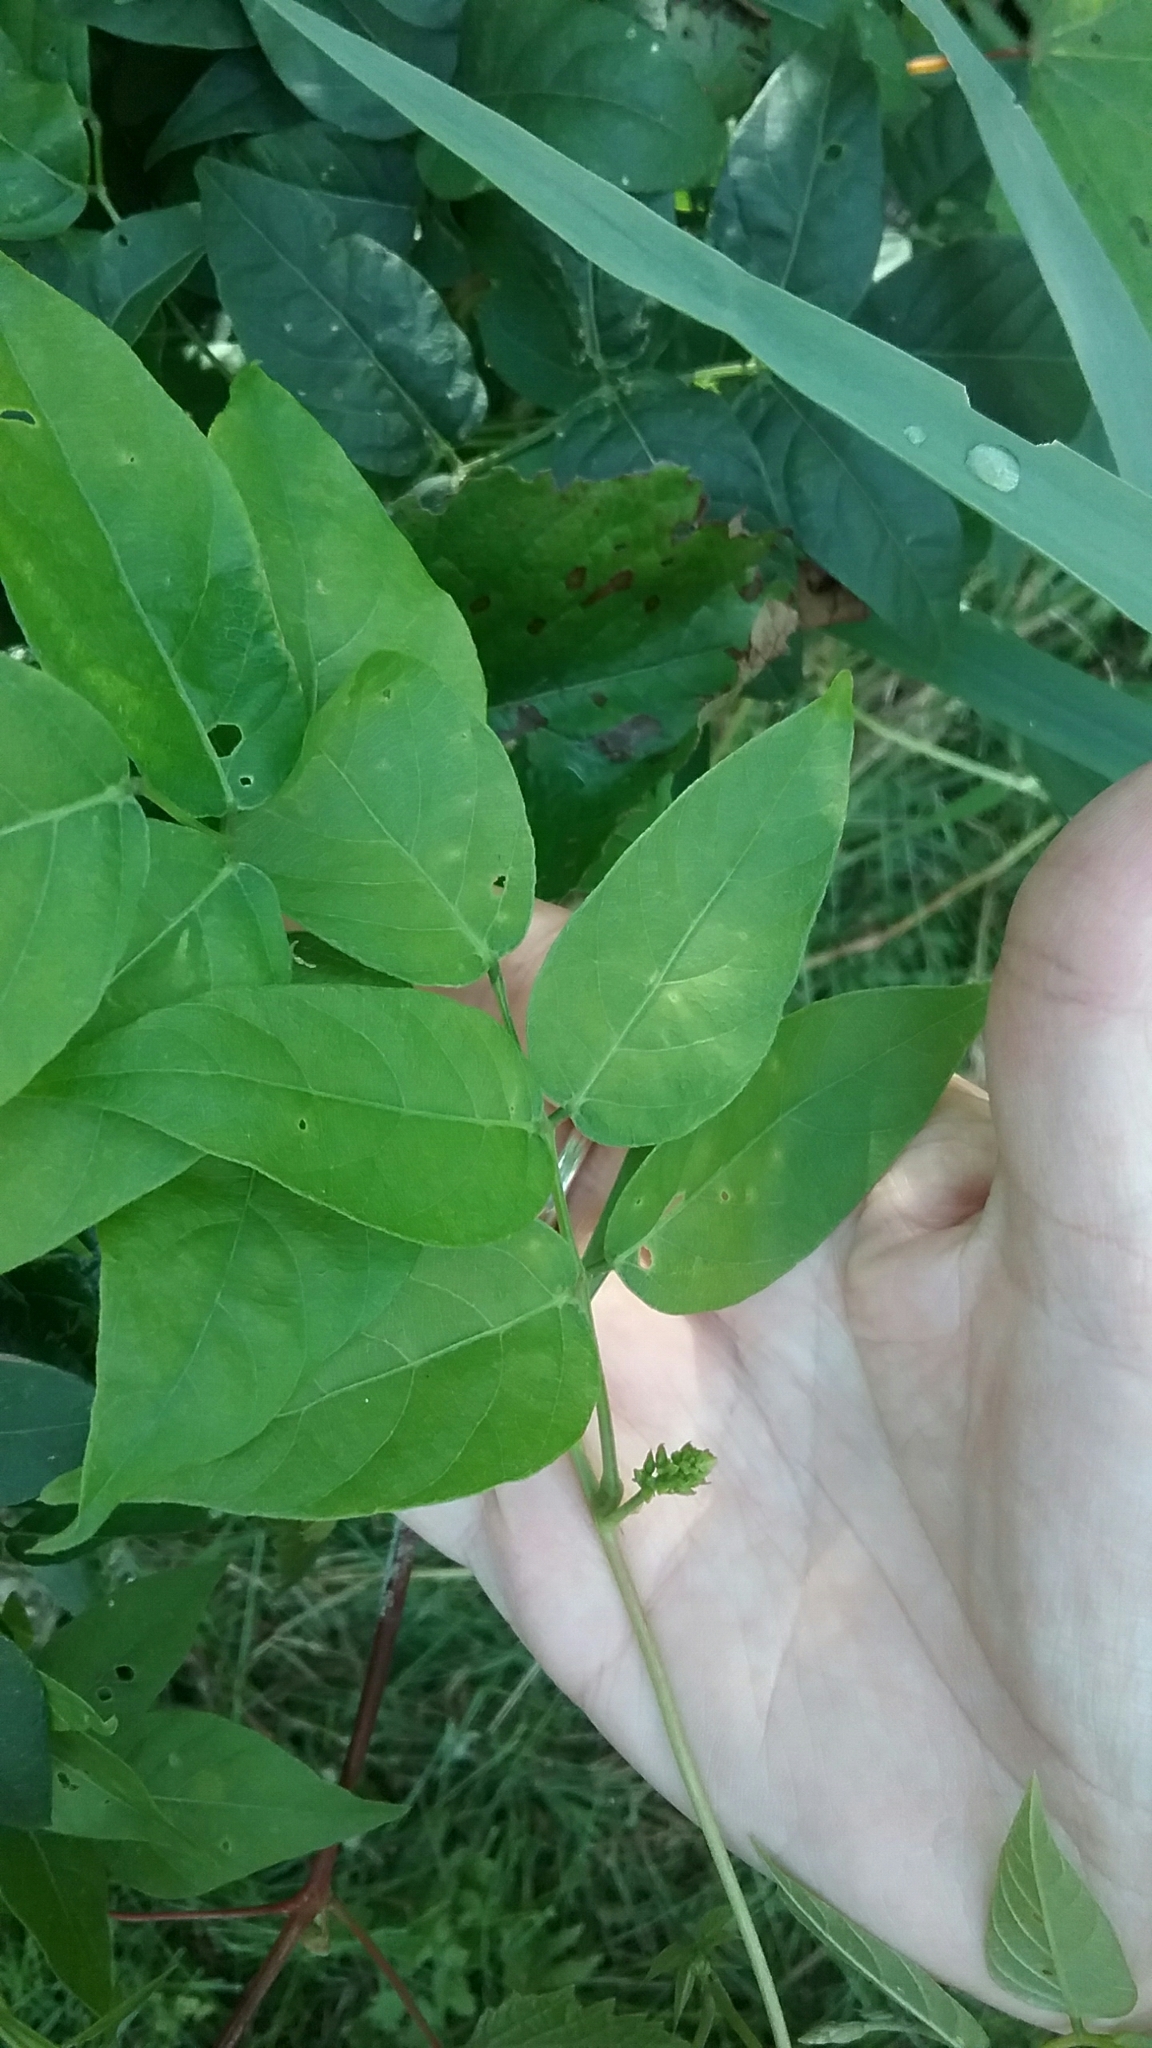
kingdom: Plantae
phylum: Tracheophyta
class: Magnoliopsida
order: Fabales
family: Fabaceae
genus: Apios
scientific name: Apios americana
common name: American potato-bean
